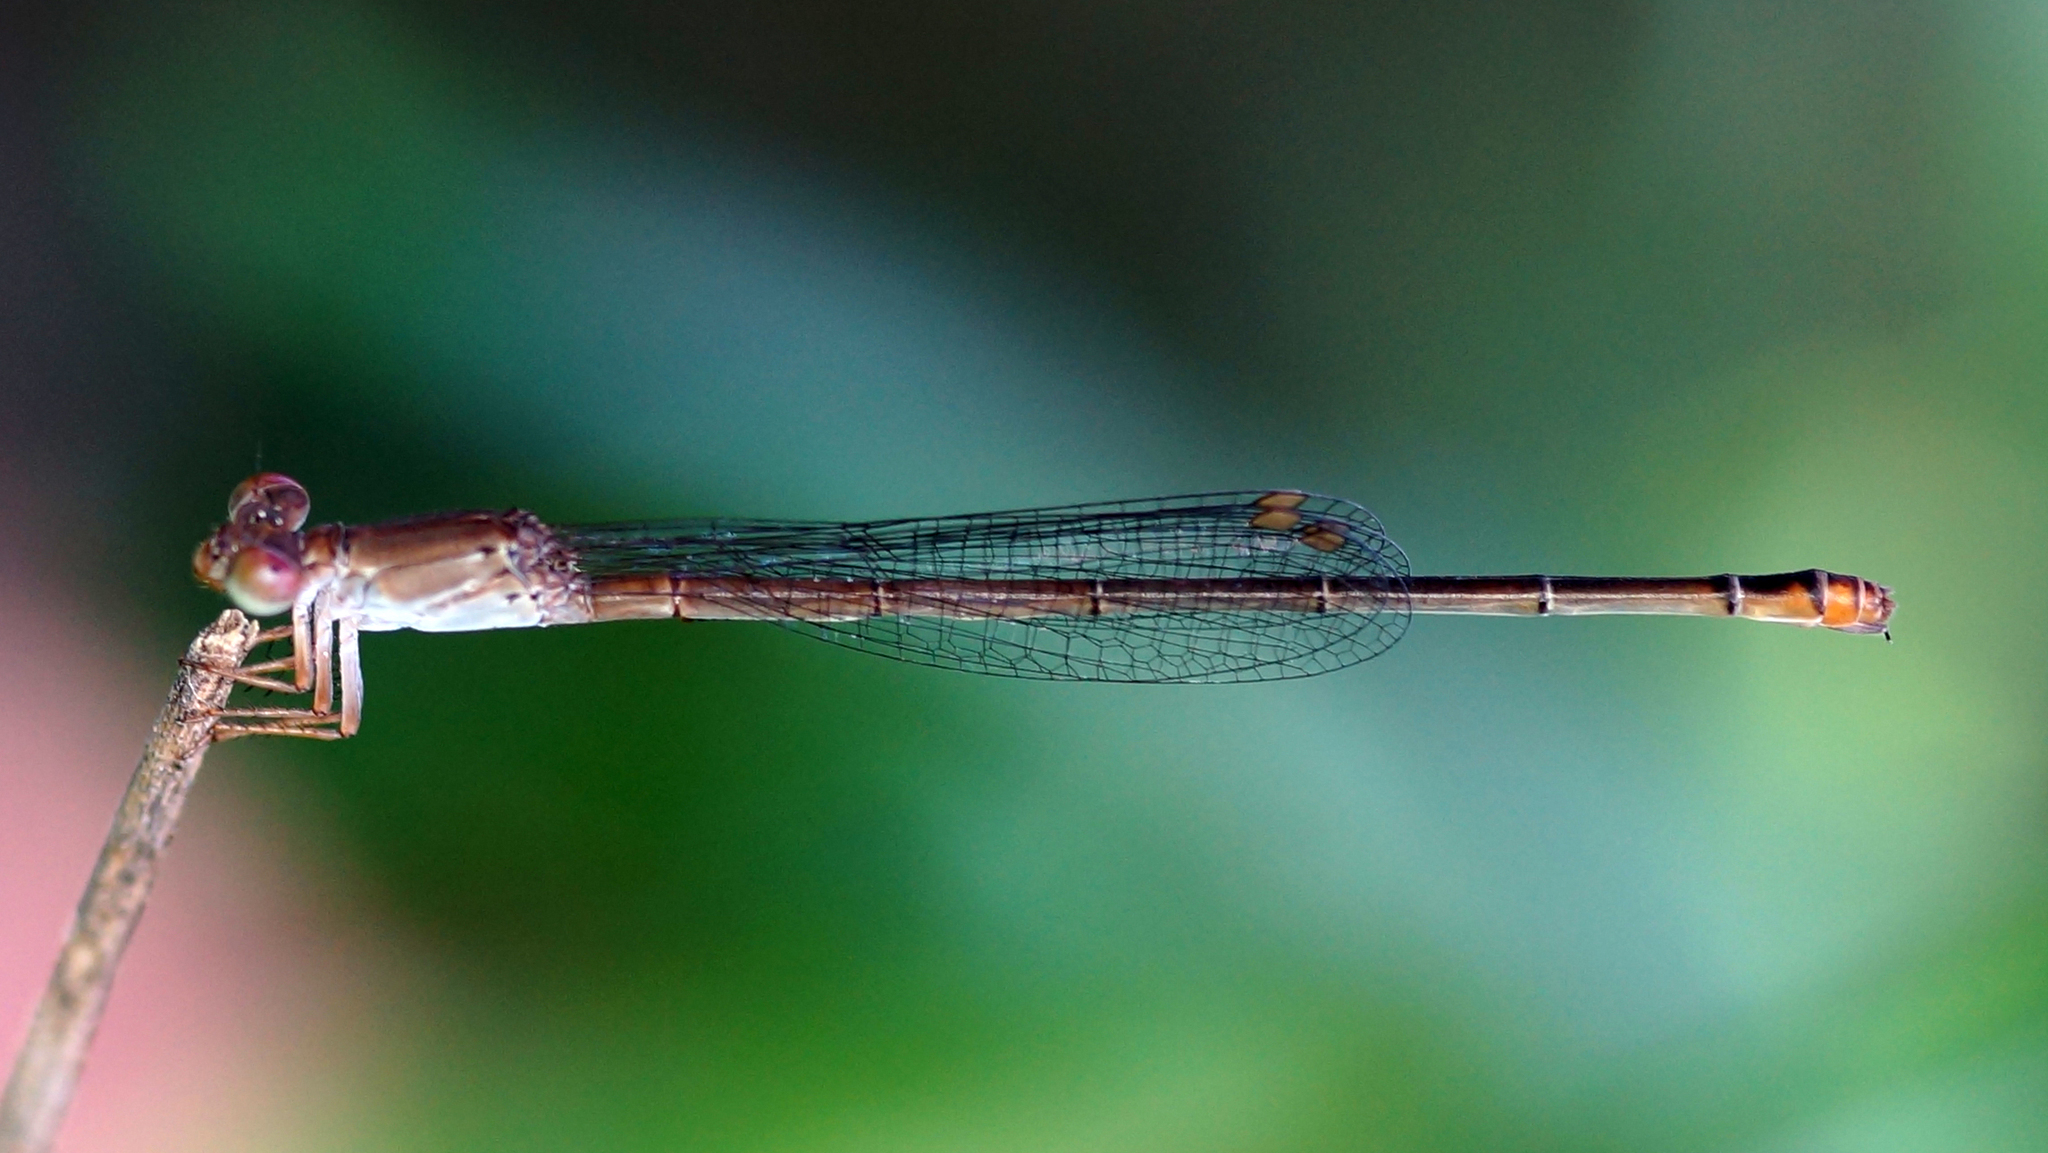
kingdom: Animalia
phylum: Arthropoda
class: Insecta
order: Odonata
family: Coenagrionidae
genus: Ceriagrion
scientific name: Ceriagrion praetermissum
